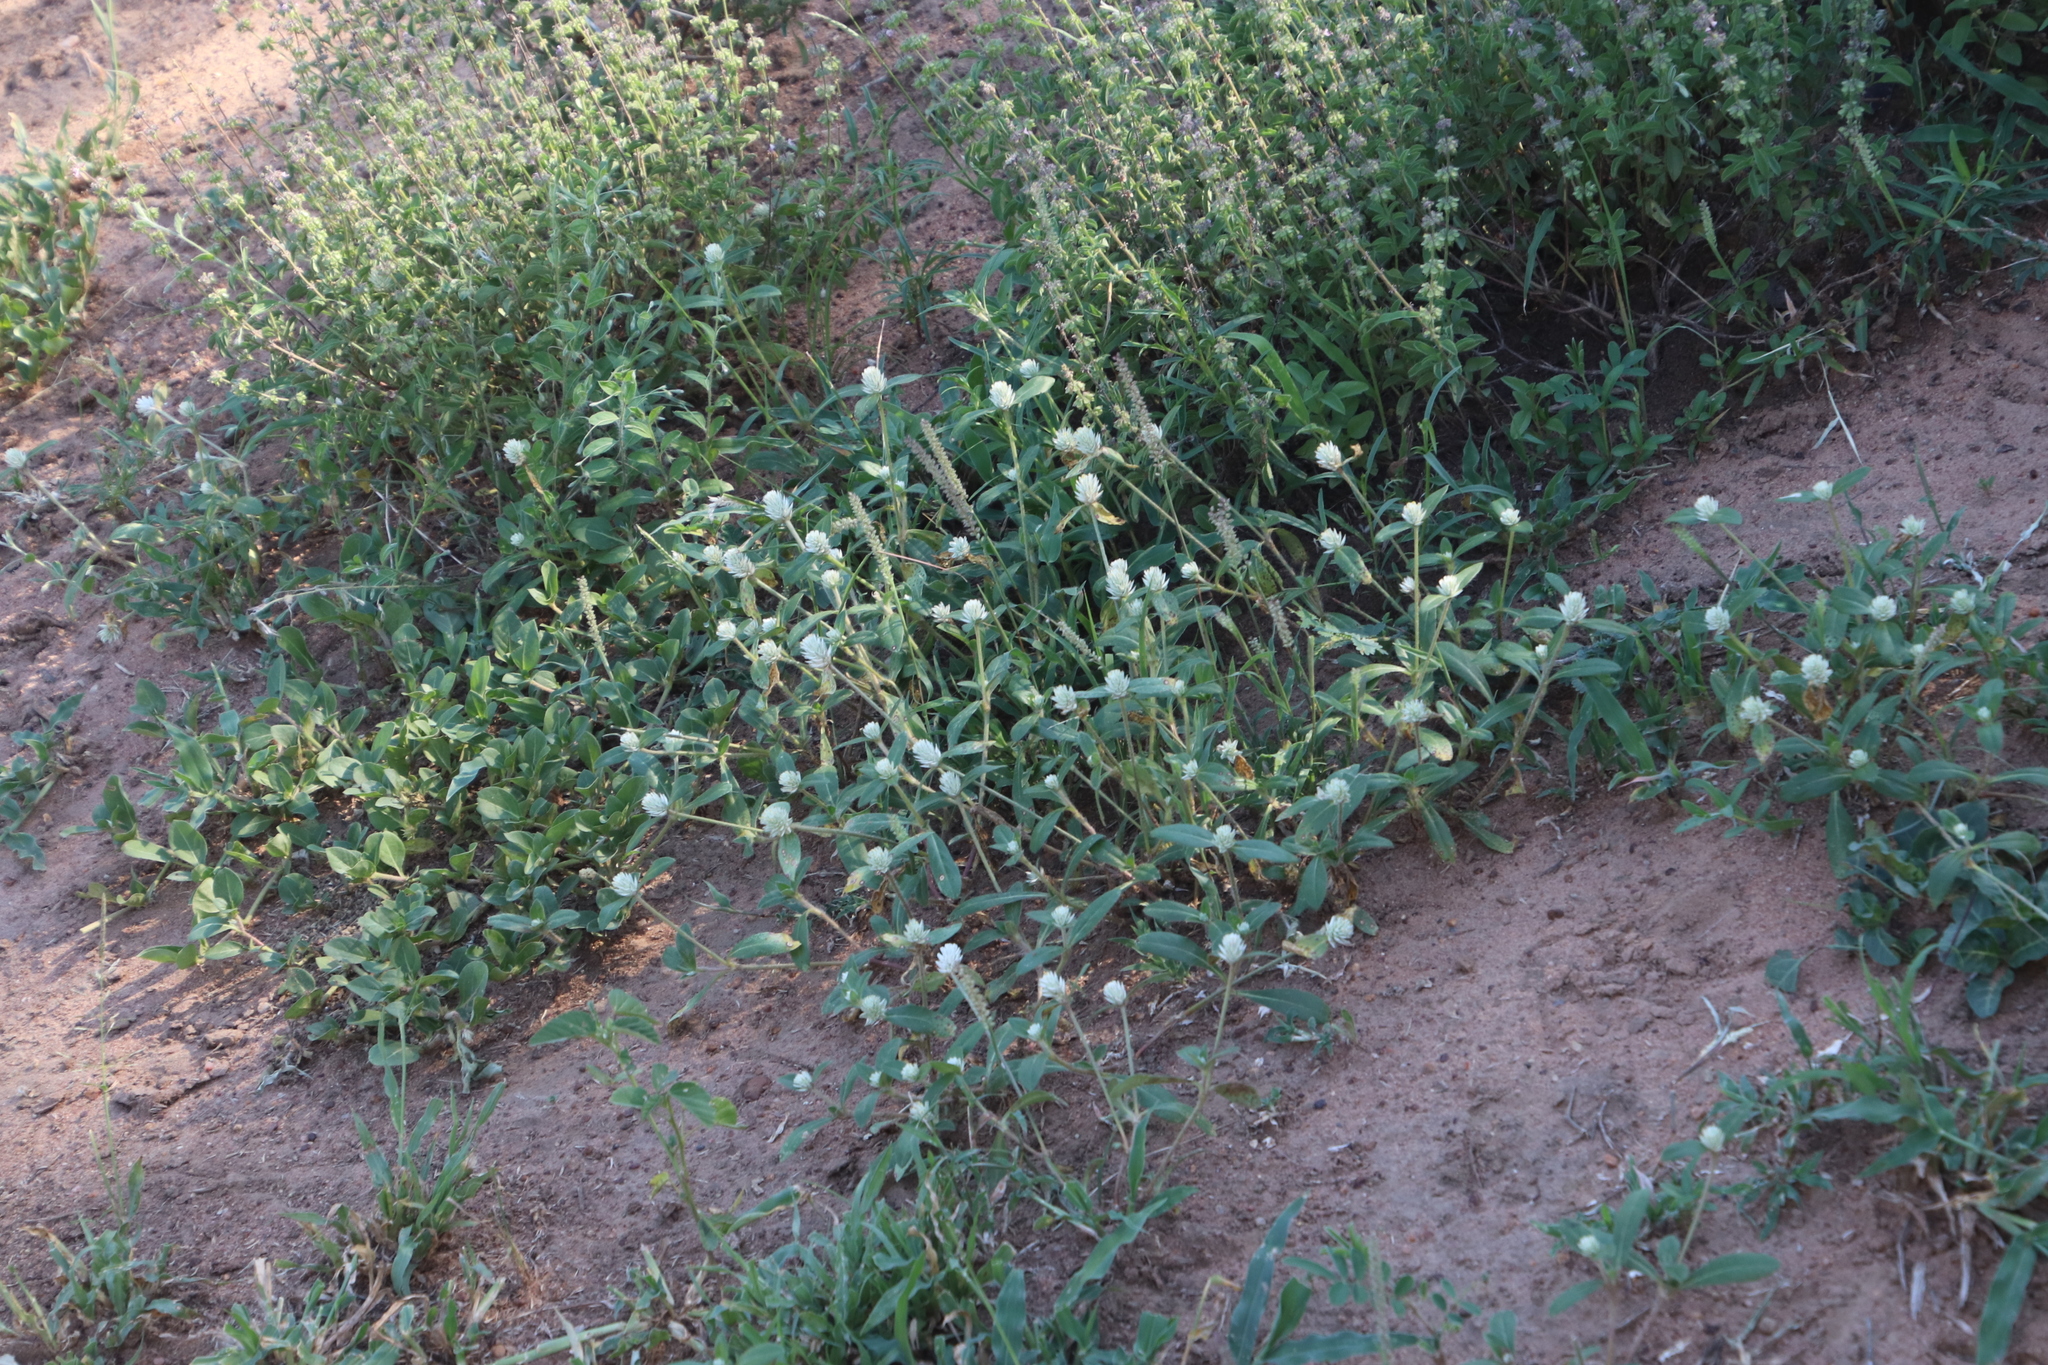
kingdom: Plantae
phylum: Tracheophyta
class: Magnoliopsida
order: Caryophyllales
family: Amaranthaceae
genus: Gomphrena
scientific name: Gomphrena celosioides
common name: Gomphrena-weed
